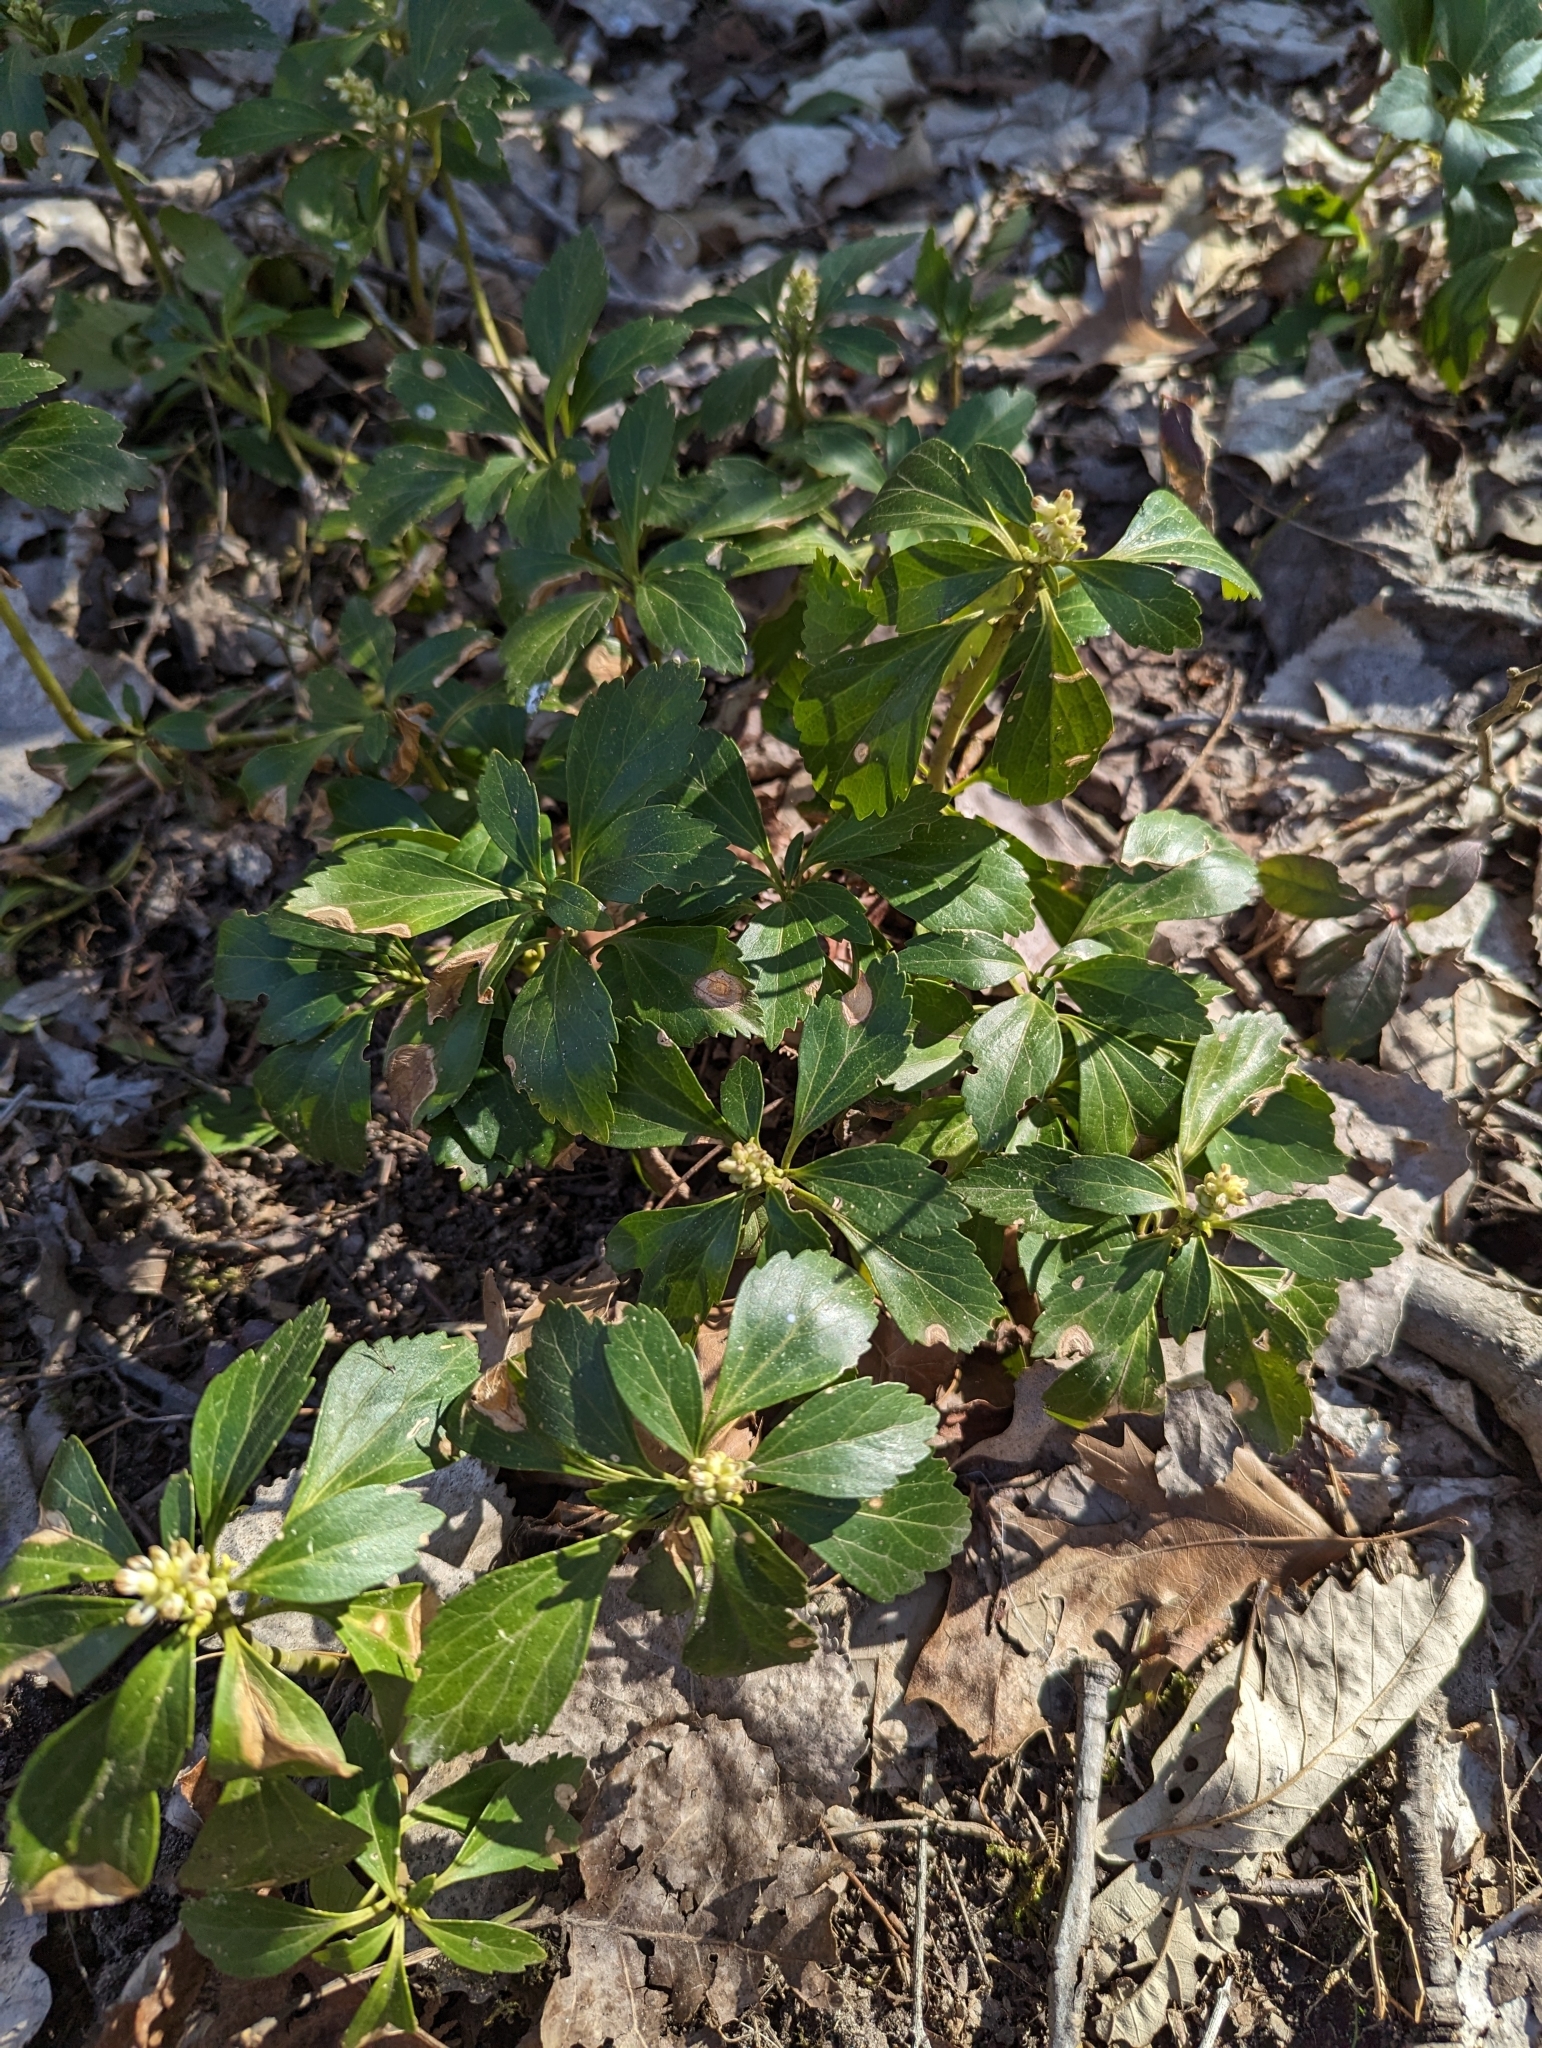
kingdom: Plantae
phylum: Tracheophyta
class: Magnoliopsida
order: Buxales
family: Buxaceae
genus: Pachysandra
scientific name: Pachysandra terminalis
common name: Japanese pachysandra
